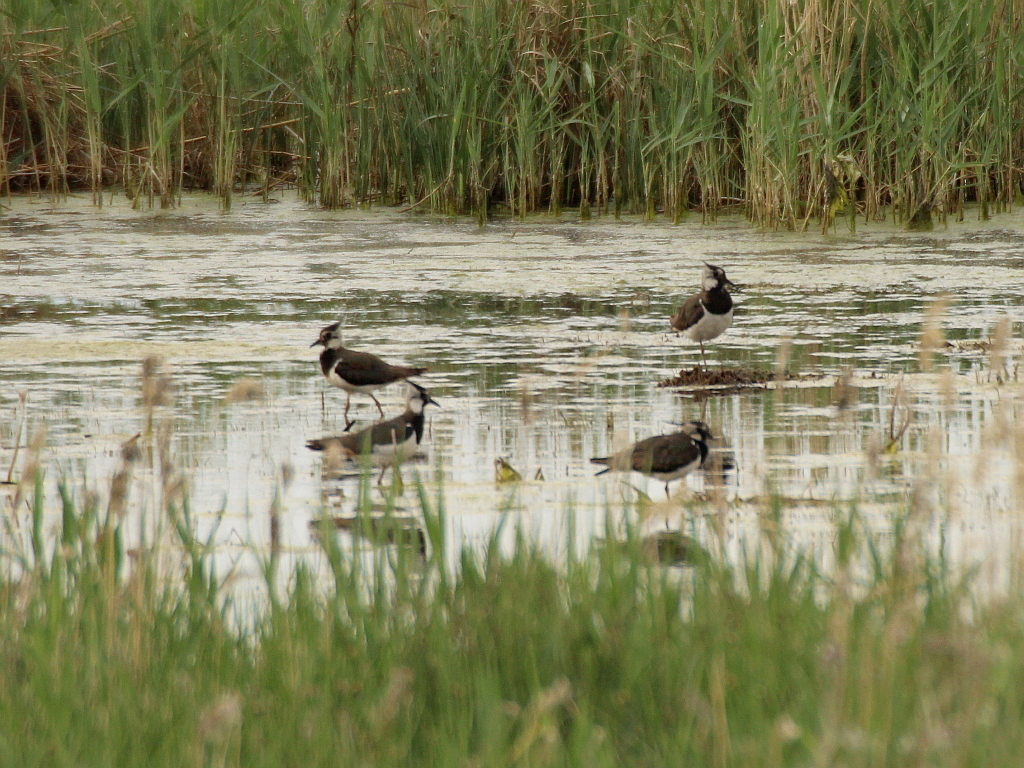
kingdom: Animalia
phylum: Chordata
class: Aves
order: Charadriiformes
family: Charadriidae
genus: Vanellus
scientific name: Vanellus vanellus
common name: Northern lapwing
